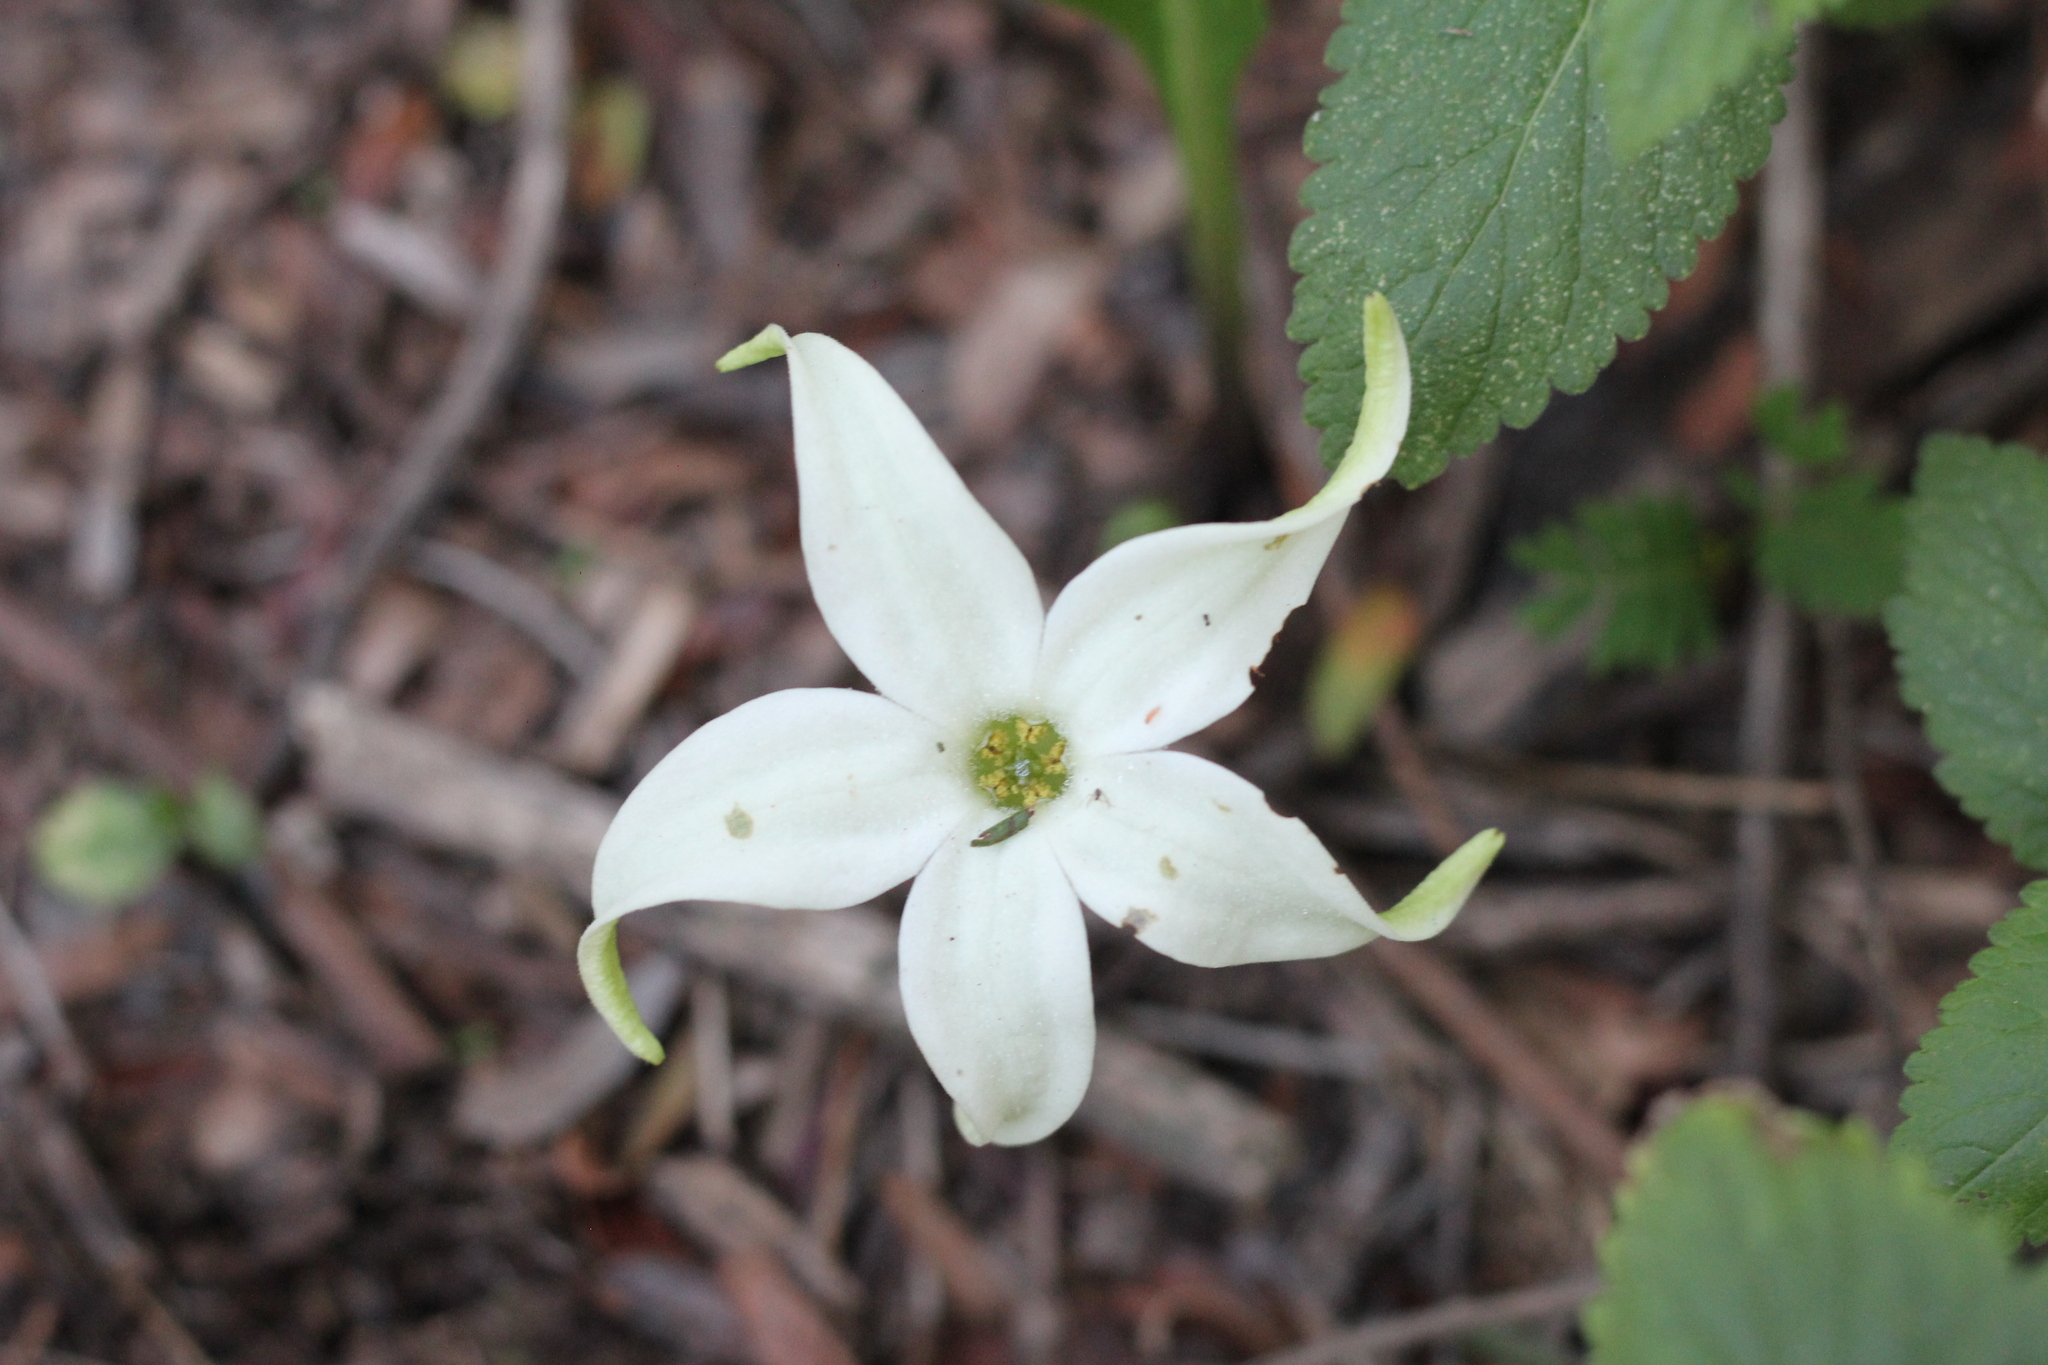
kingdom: Plantae
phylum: Tracheophyta
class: Magnoliopsida
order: Solanales
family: Solanaceae
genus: Jaborosa
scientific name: Jaborosa integrifolia
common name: Springblossom
